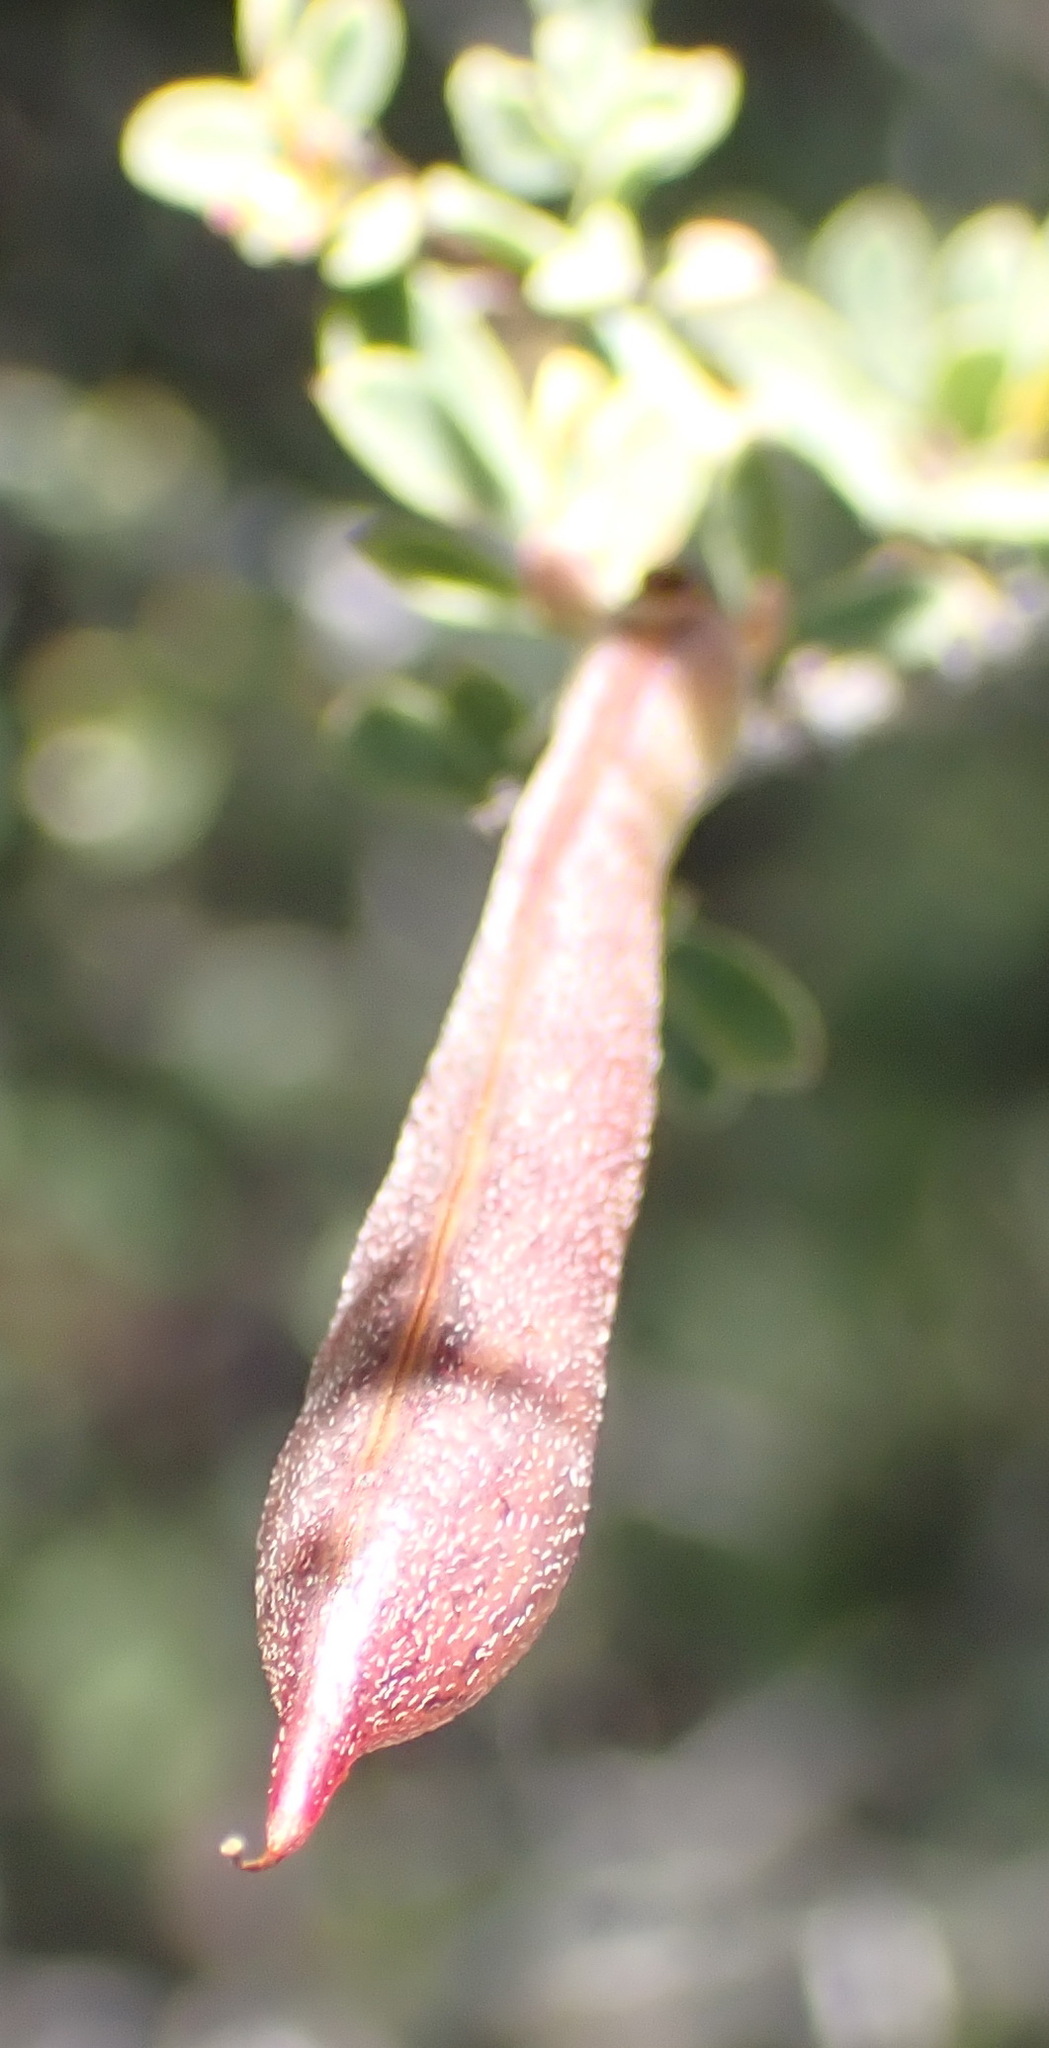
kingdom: Plantae
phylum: Tracheophyta
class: Magnoliopsida
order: Fabales
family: Fabaceae
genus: Indigofera
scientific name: Indigofera denudata
